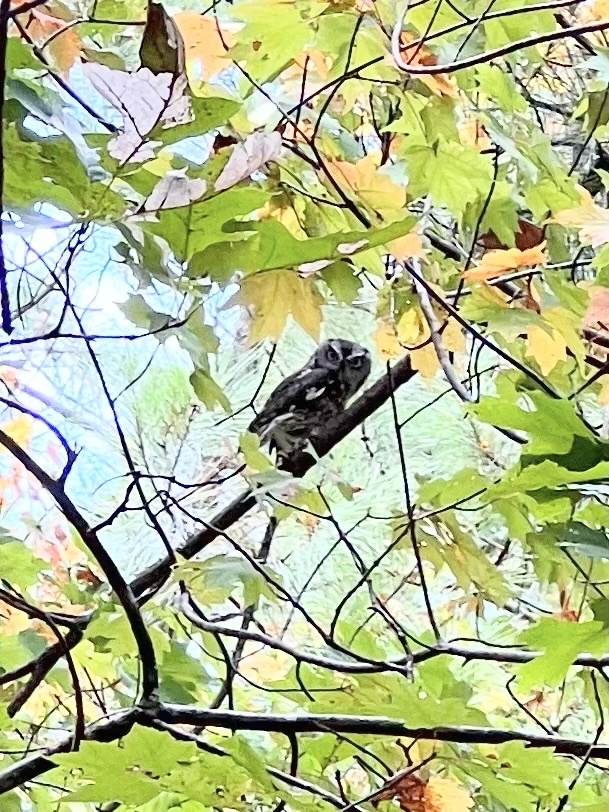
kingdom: Animalia
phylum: Chordata
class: Aves
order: Strigiformes
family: Strigidae
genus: Megascops
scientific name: Megascops asio
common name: Eastern screech-owl
